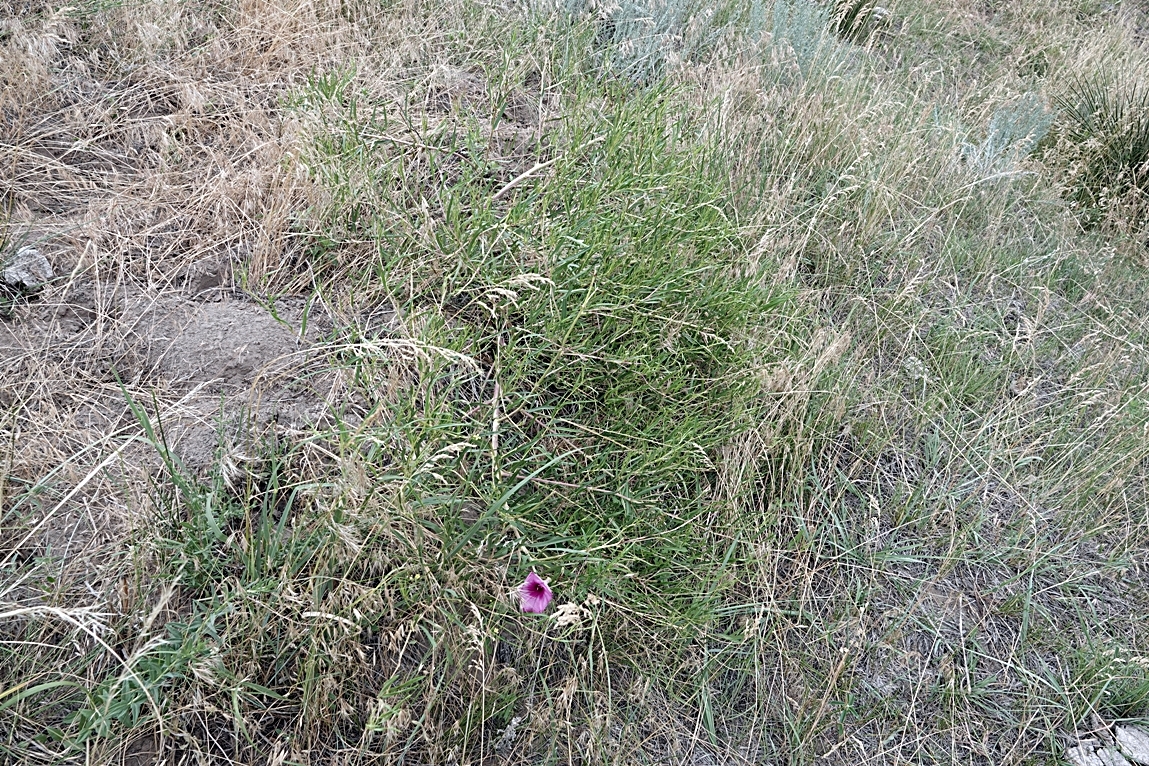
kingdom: Plantae
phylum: Tracheophyta
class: Magnoliopsida
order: Solanales
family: Convolvulaceae
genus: Ipomoea
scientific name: Ipomoea leptophylla
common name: Bush moonflower
